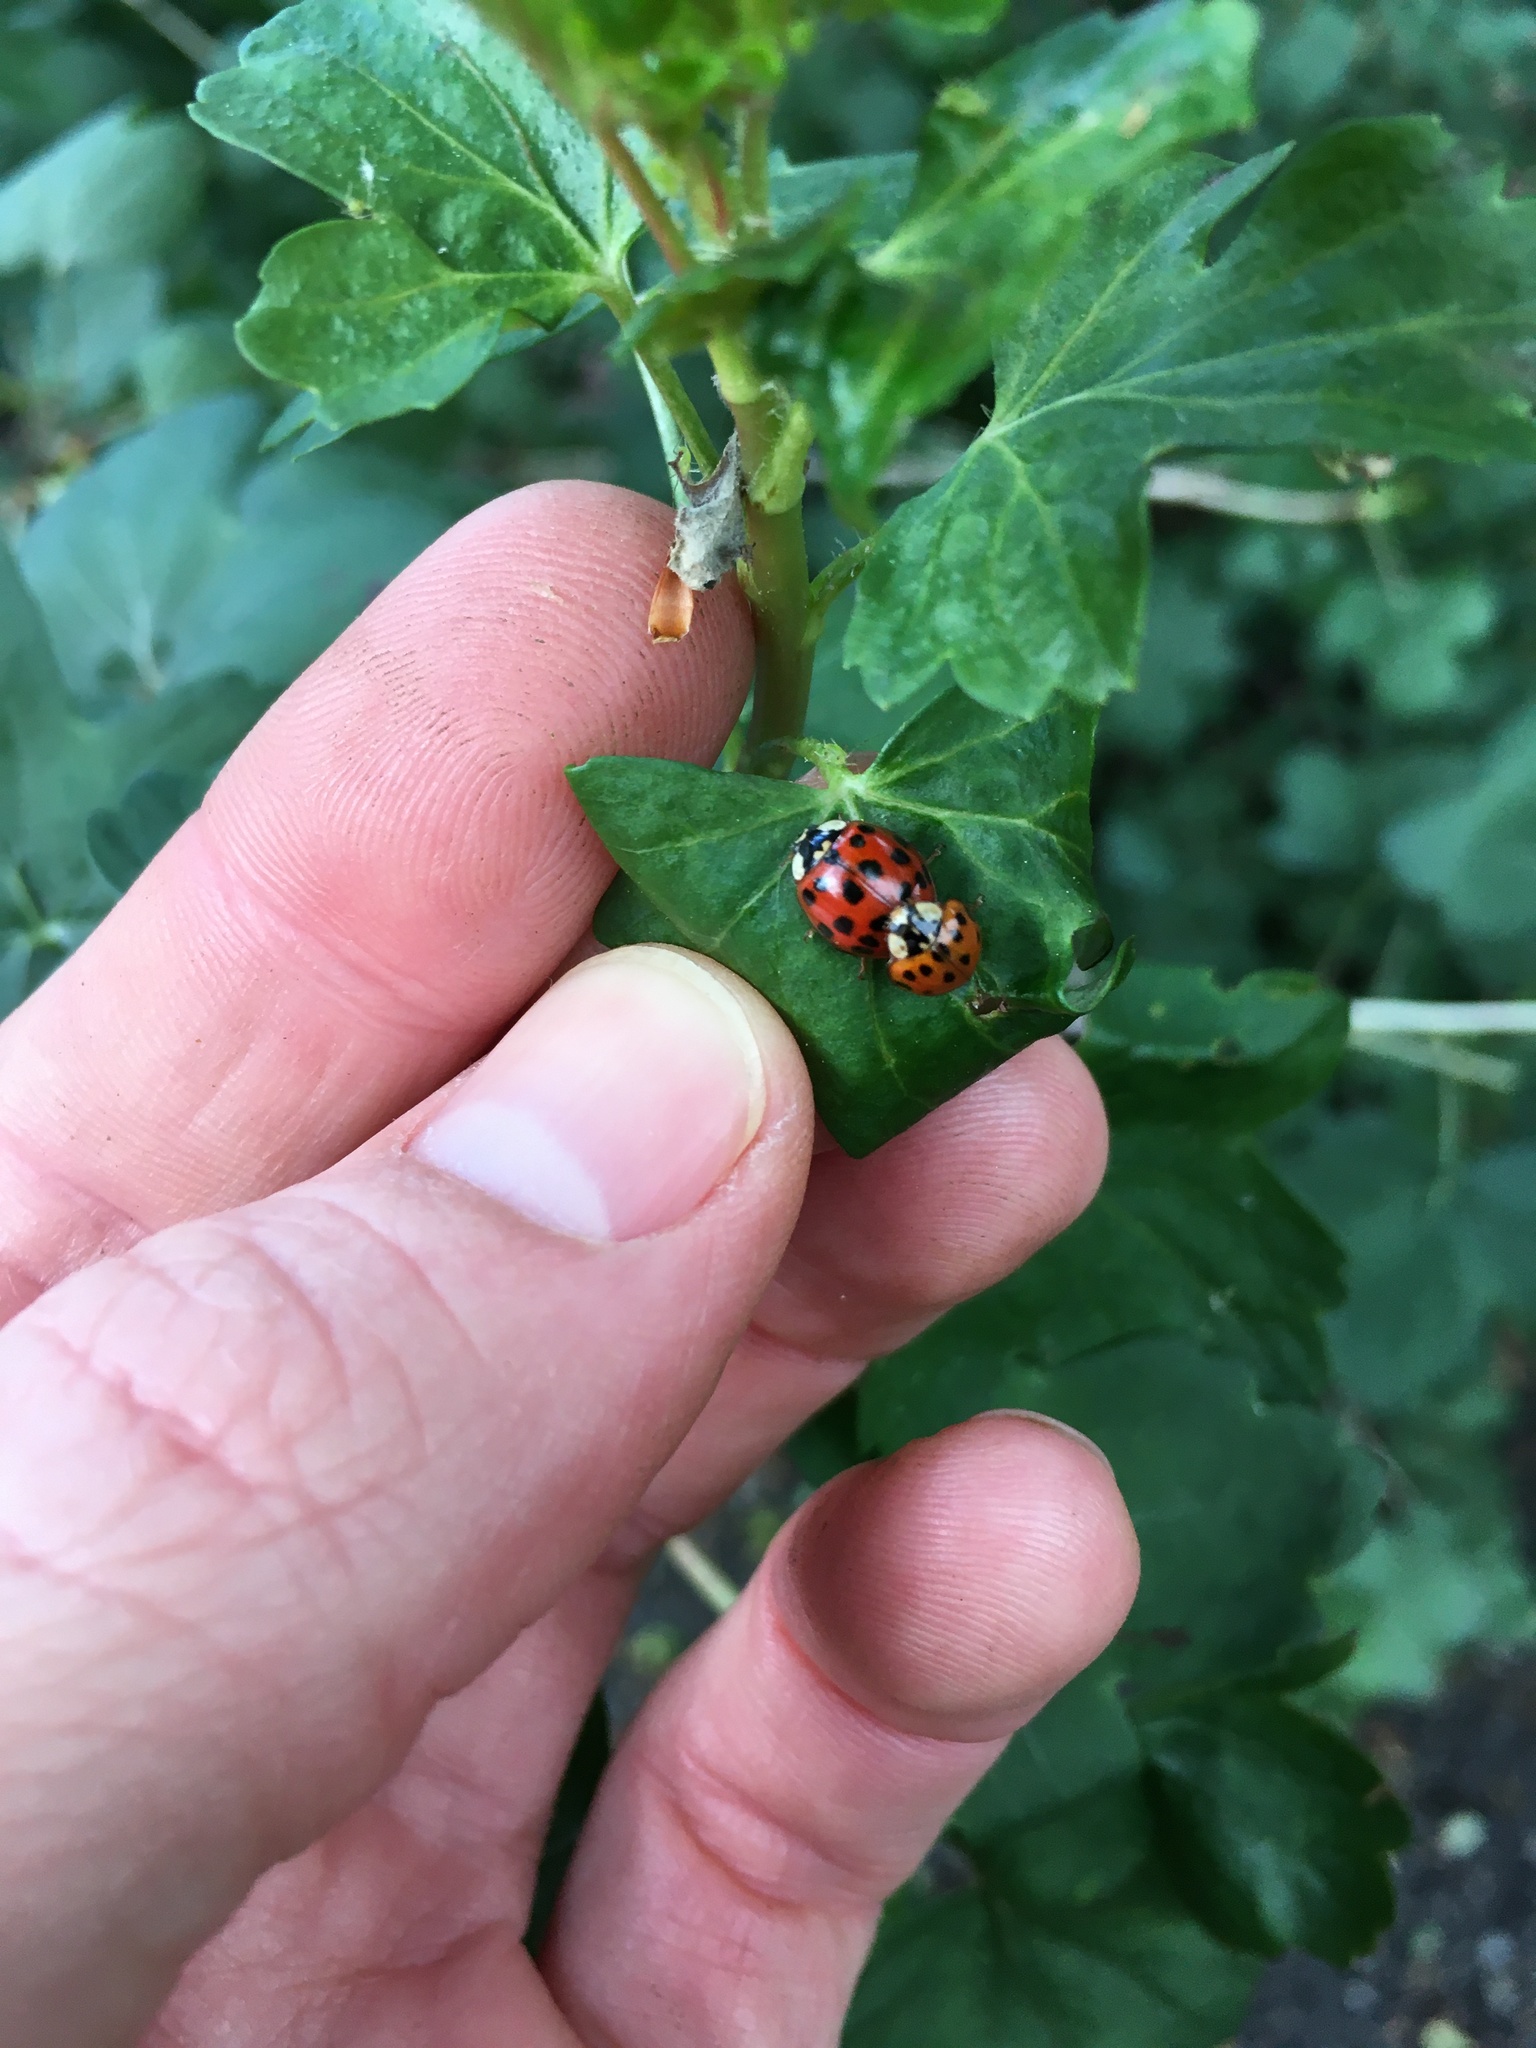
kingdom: Animalia
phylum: Arthropoda
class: Insecta
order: Coleoptera
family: Coccinellidae
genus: Harmonia
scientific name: Harmonia axyridis
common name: Harlequin ladybird
